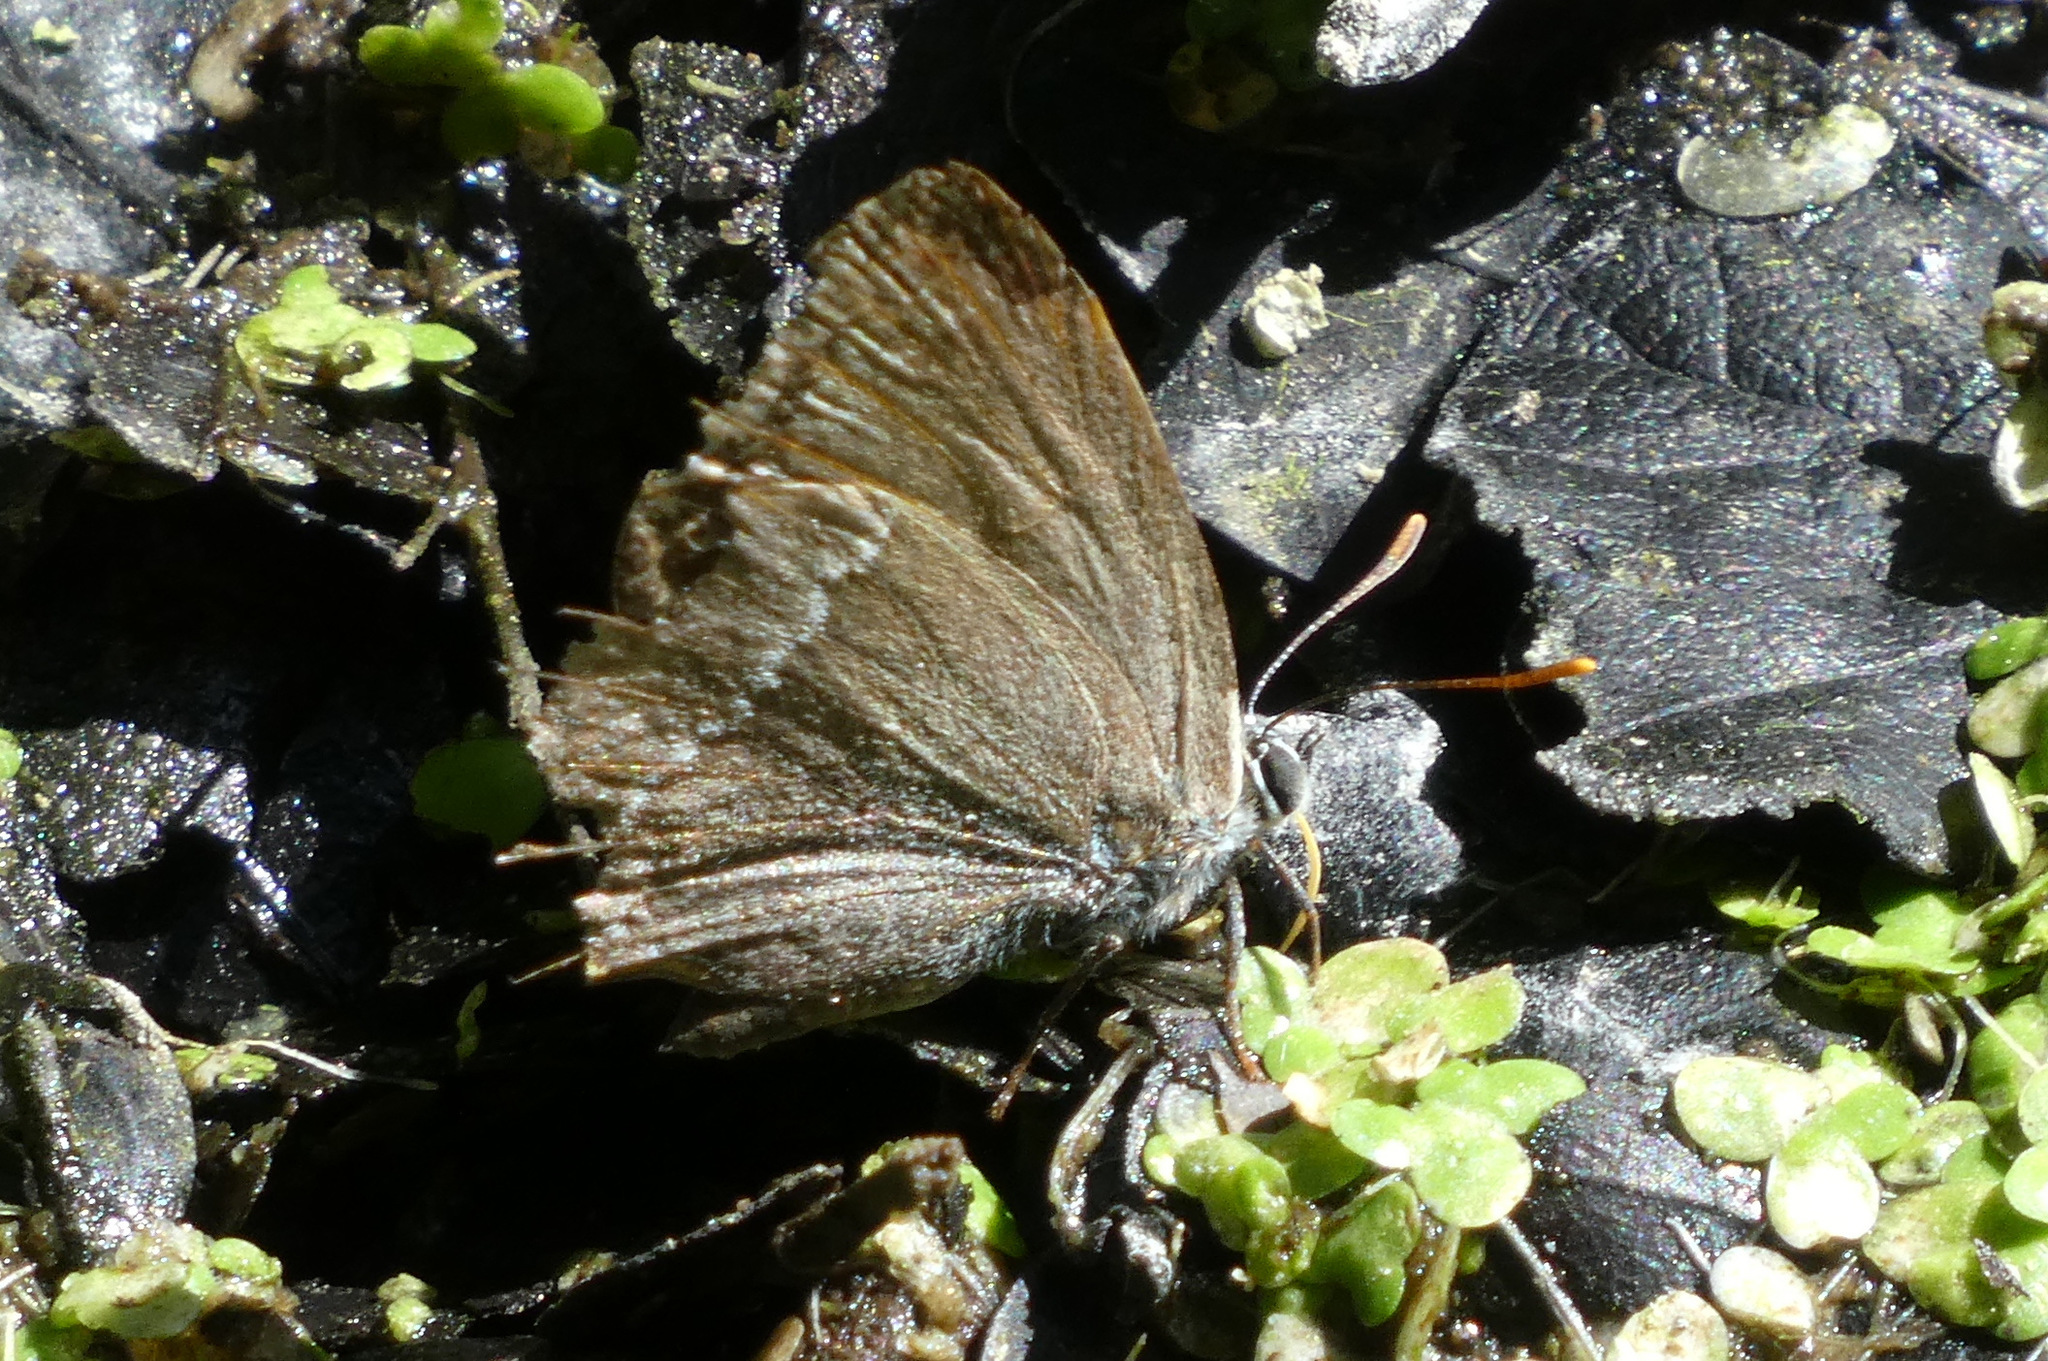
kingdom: Animalia
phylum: Arthropoda
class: Insecta
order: Lepidoptera
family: Lycaenidae
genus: Quercusia
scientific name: Quercusia quercus
